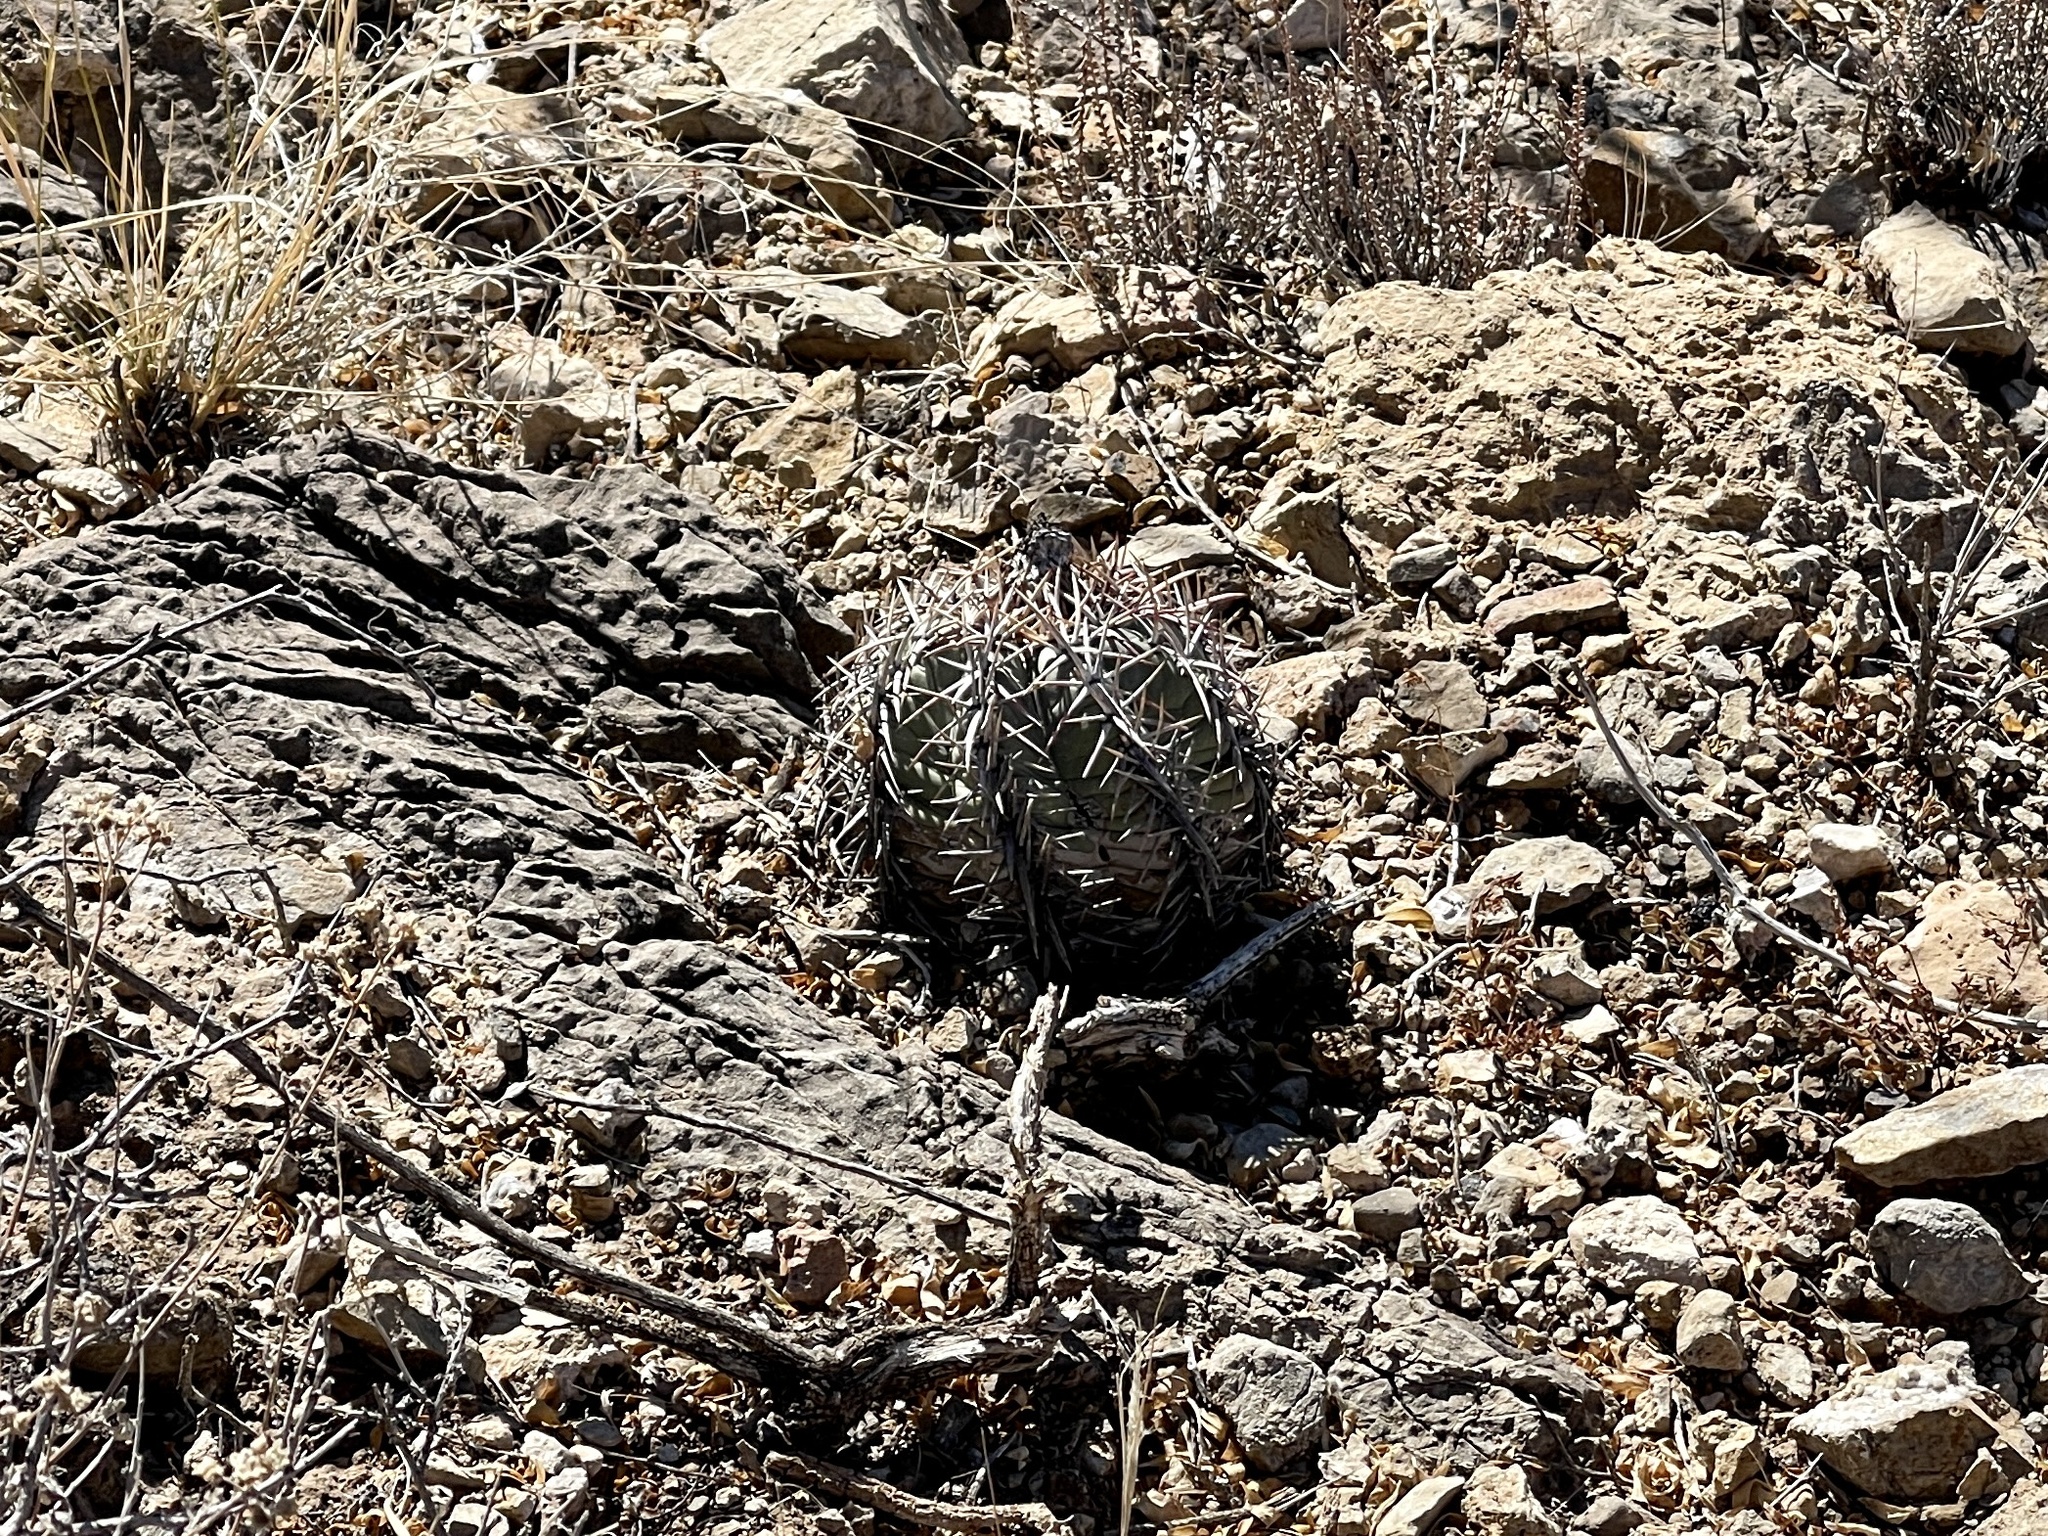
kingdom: Plantae
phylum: Tracheophyta
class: Magnoliopsida
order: Caryophyllales
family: Cactaceae
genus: Echinocactus
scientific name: Echinocactus horizonthalonius
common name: Devilshead
